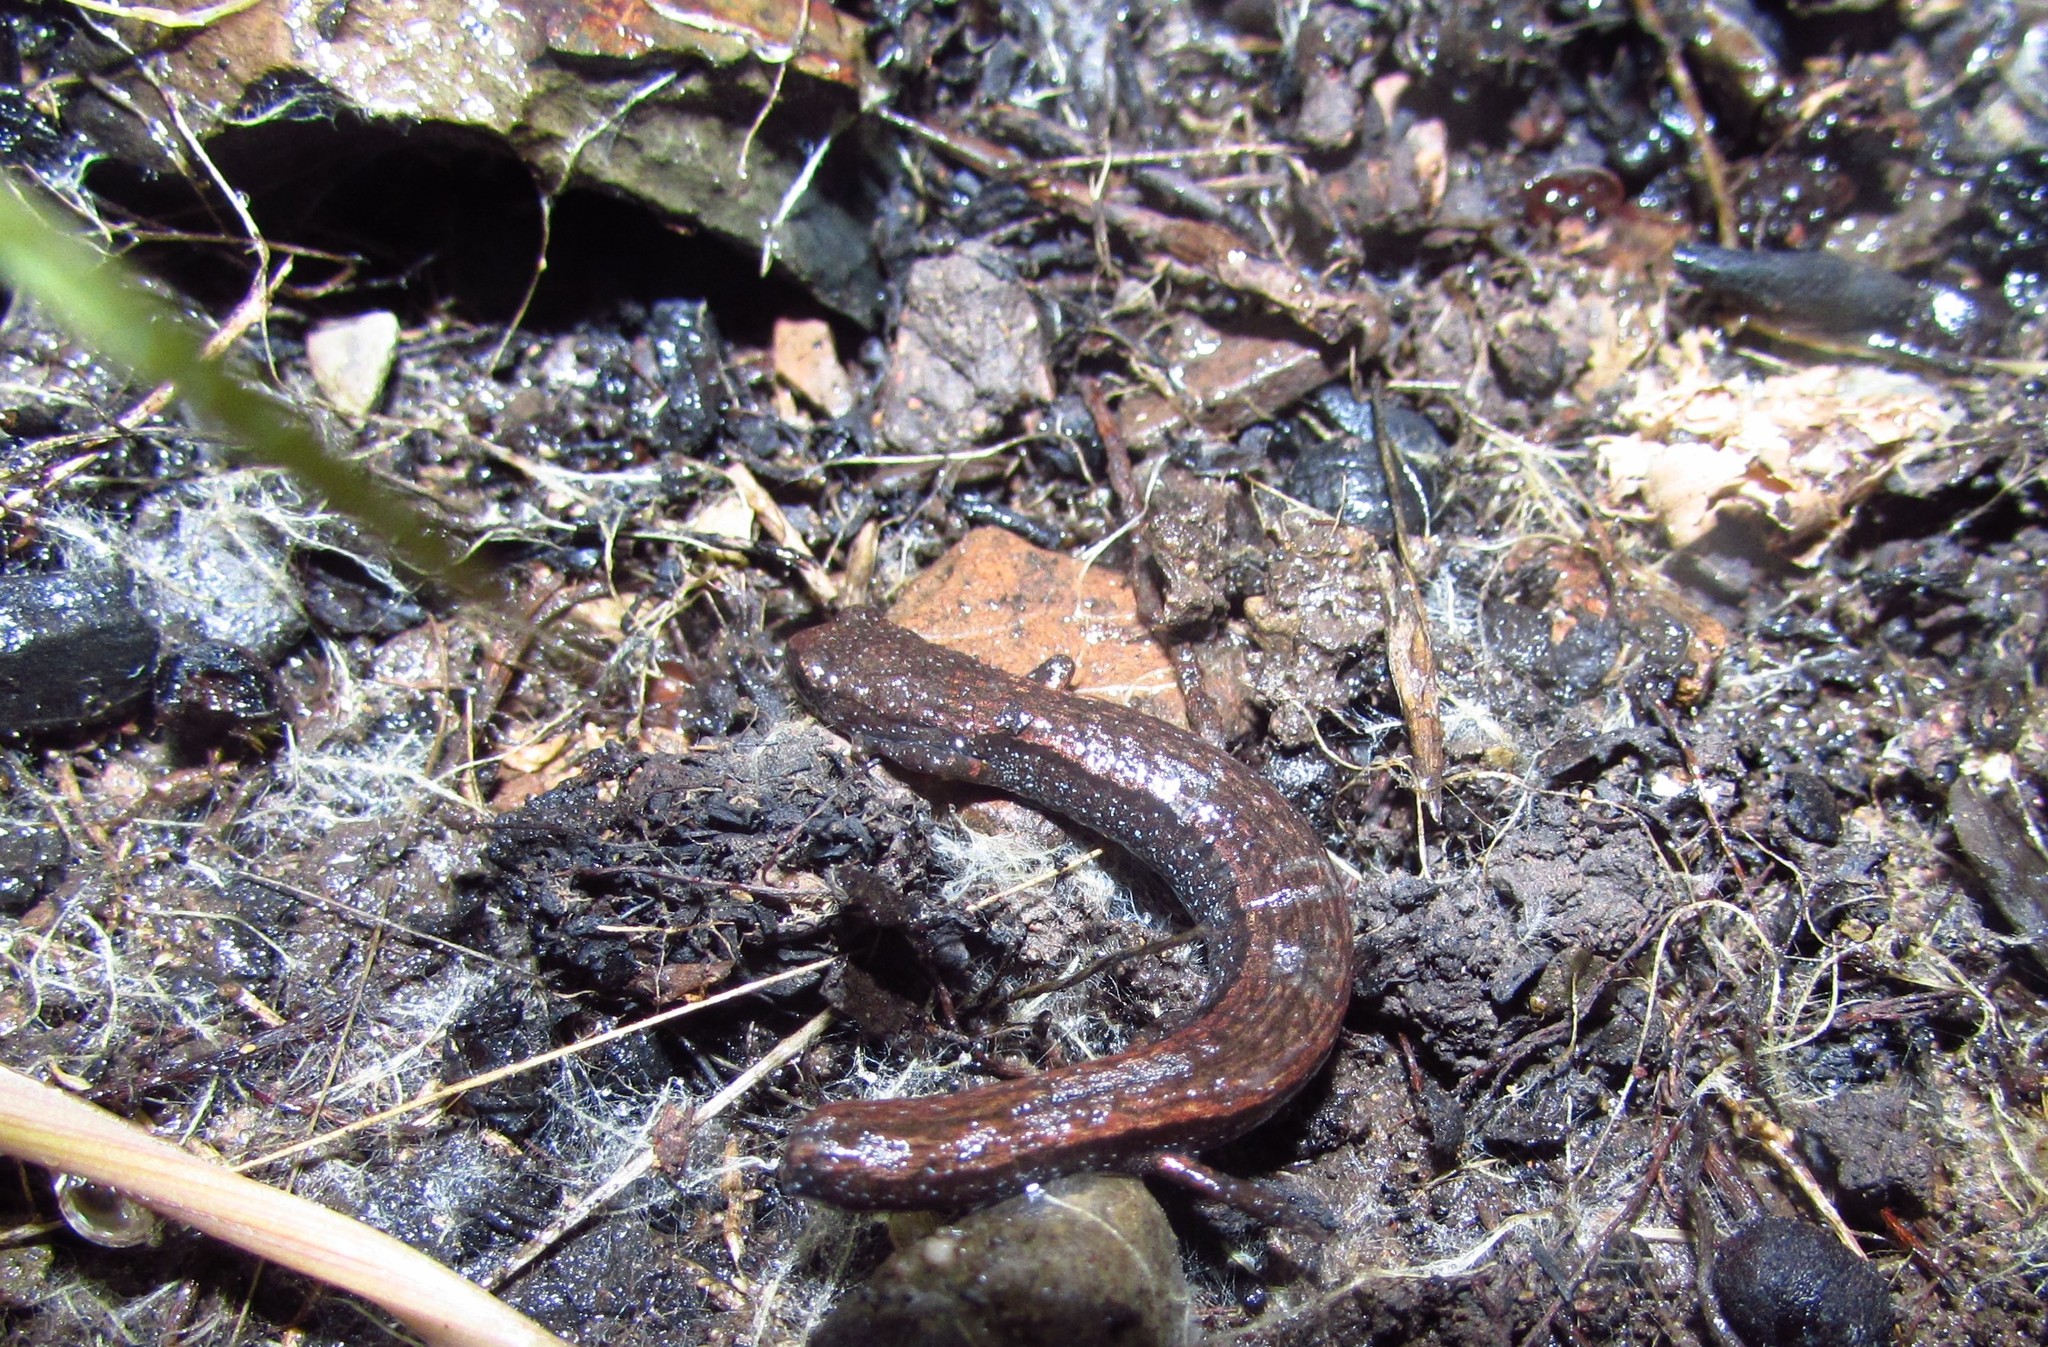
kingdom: Animalia
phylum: Chordata
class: Amphibia
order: Caudata
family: Plethodontidae
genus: Batrachoseps
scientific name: Batrachoseps diabolicus
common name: Hell hollow slender salamander
